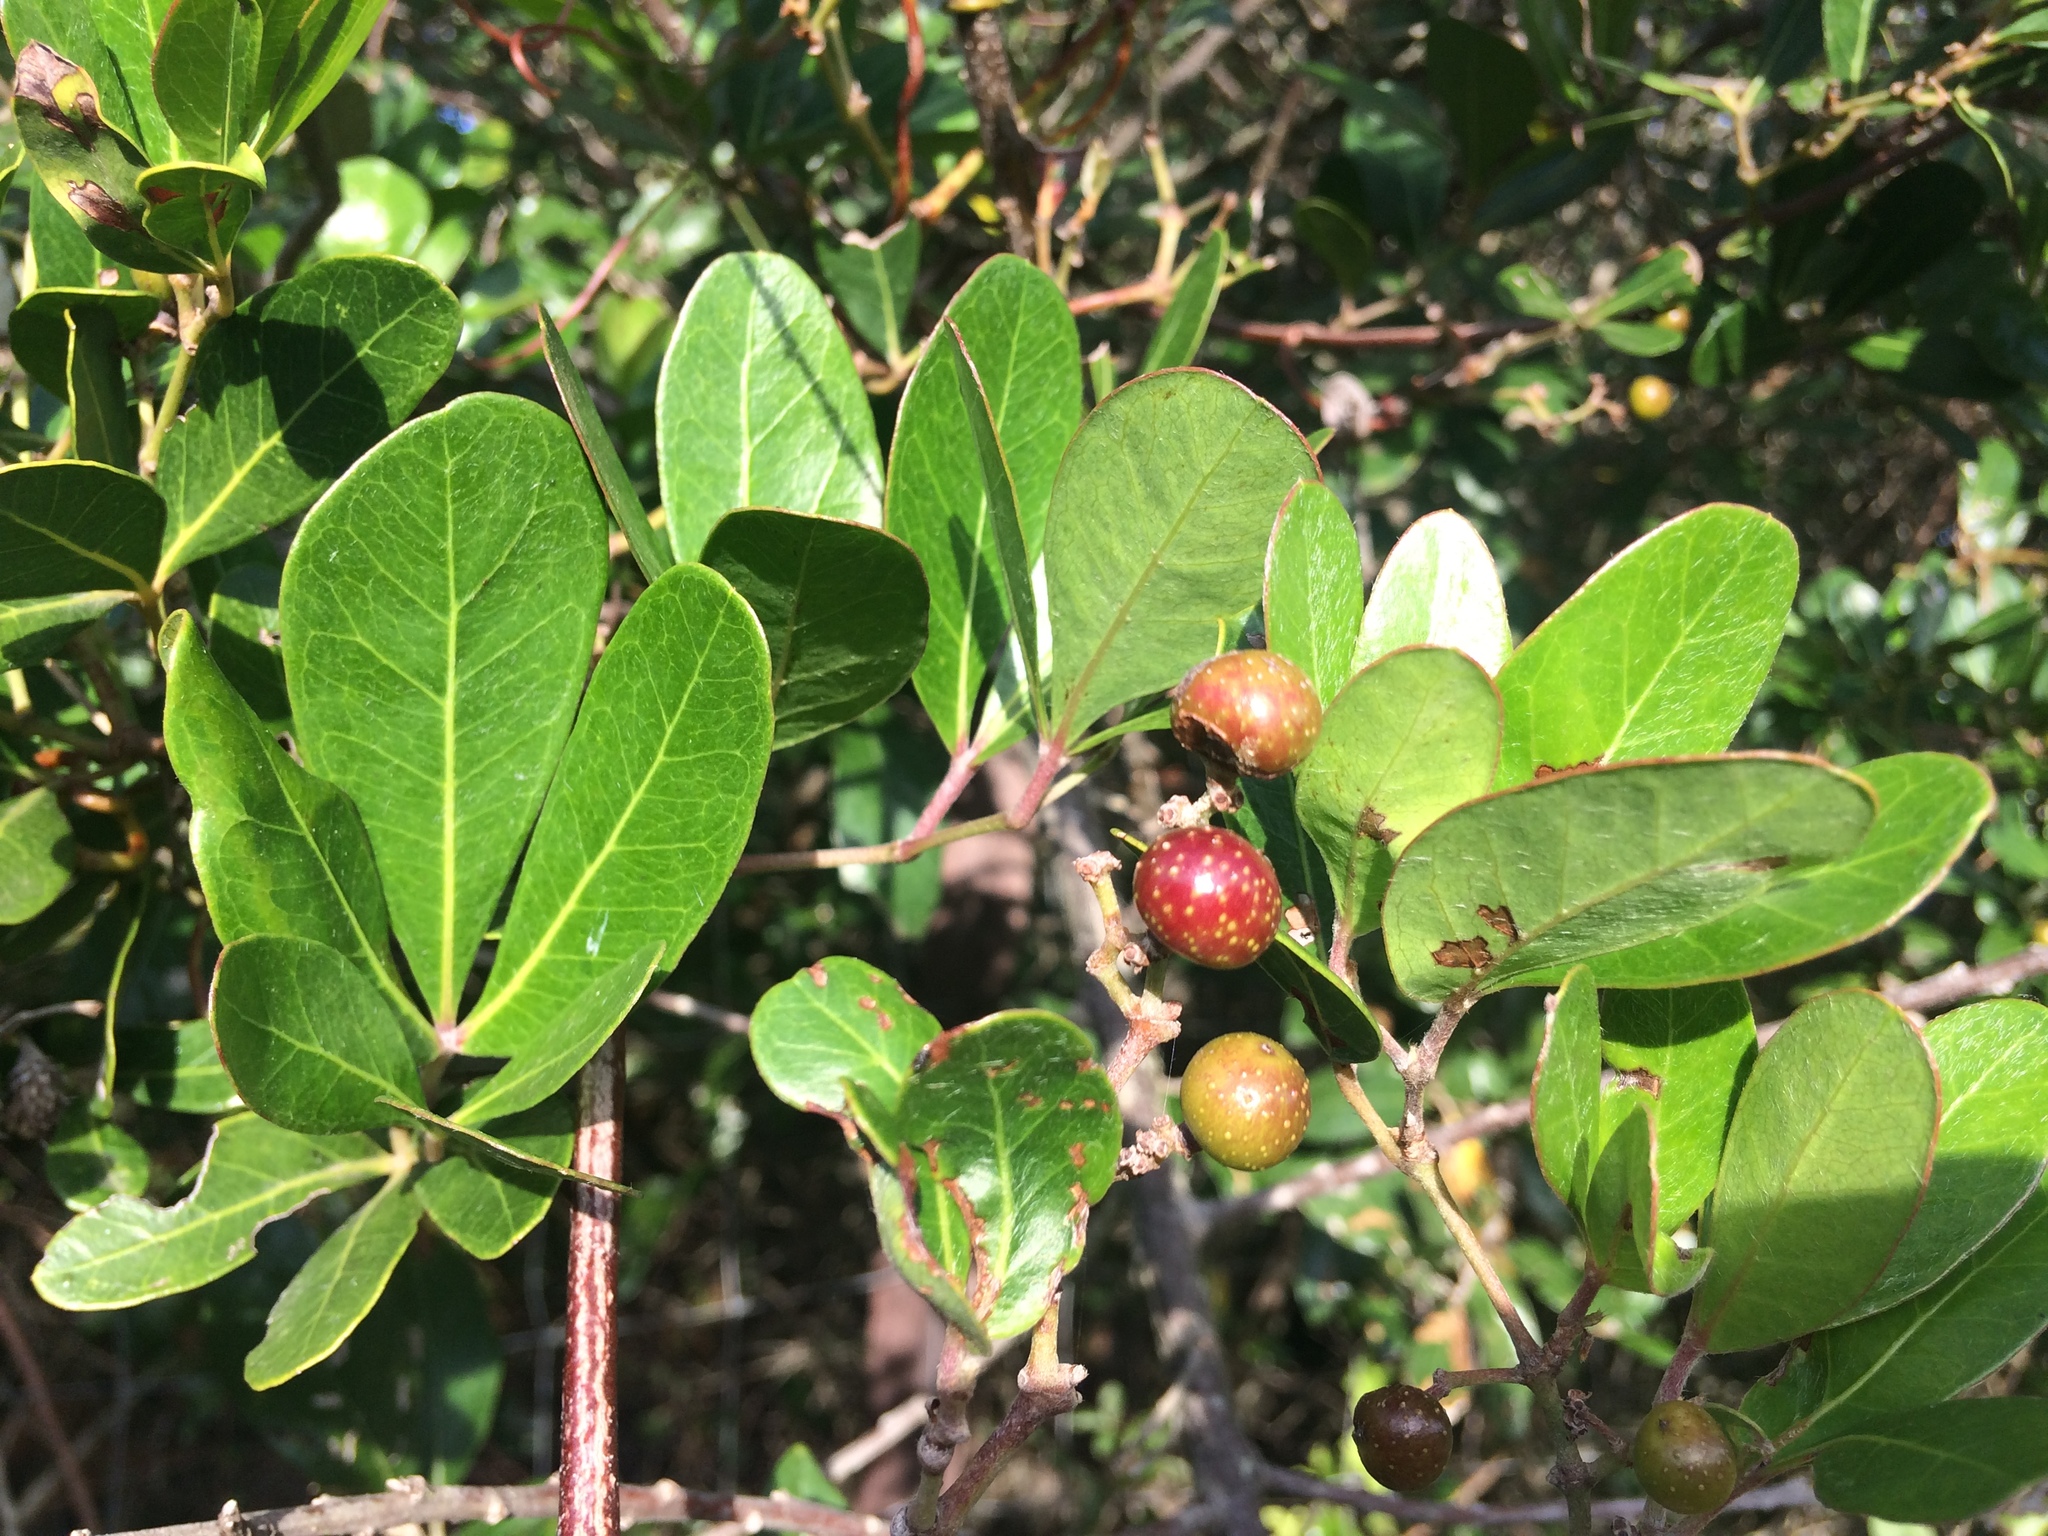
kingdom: Plantae
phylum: Tracheophyta
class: Magnoliopsida
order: Vitales
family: Vitaceae
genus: Rhoicissus
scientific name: Rhoicissus digitata
